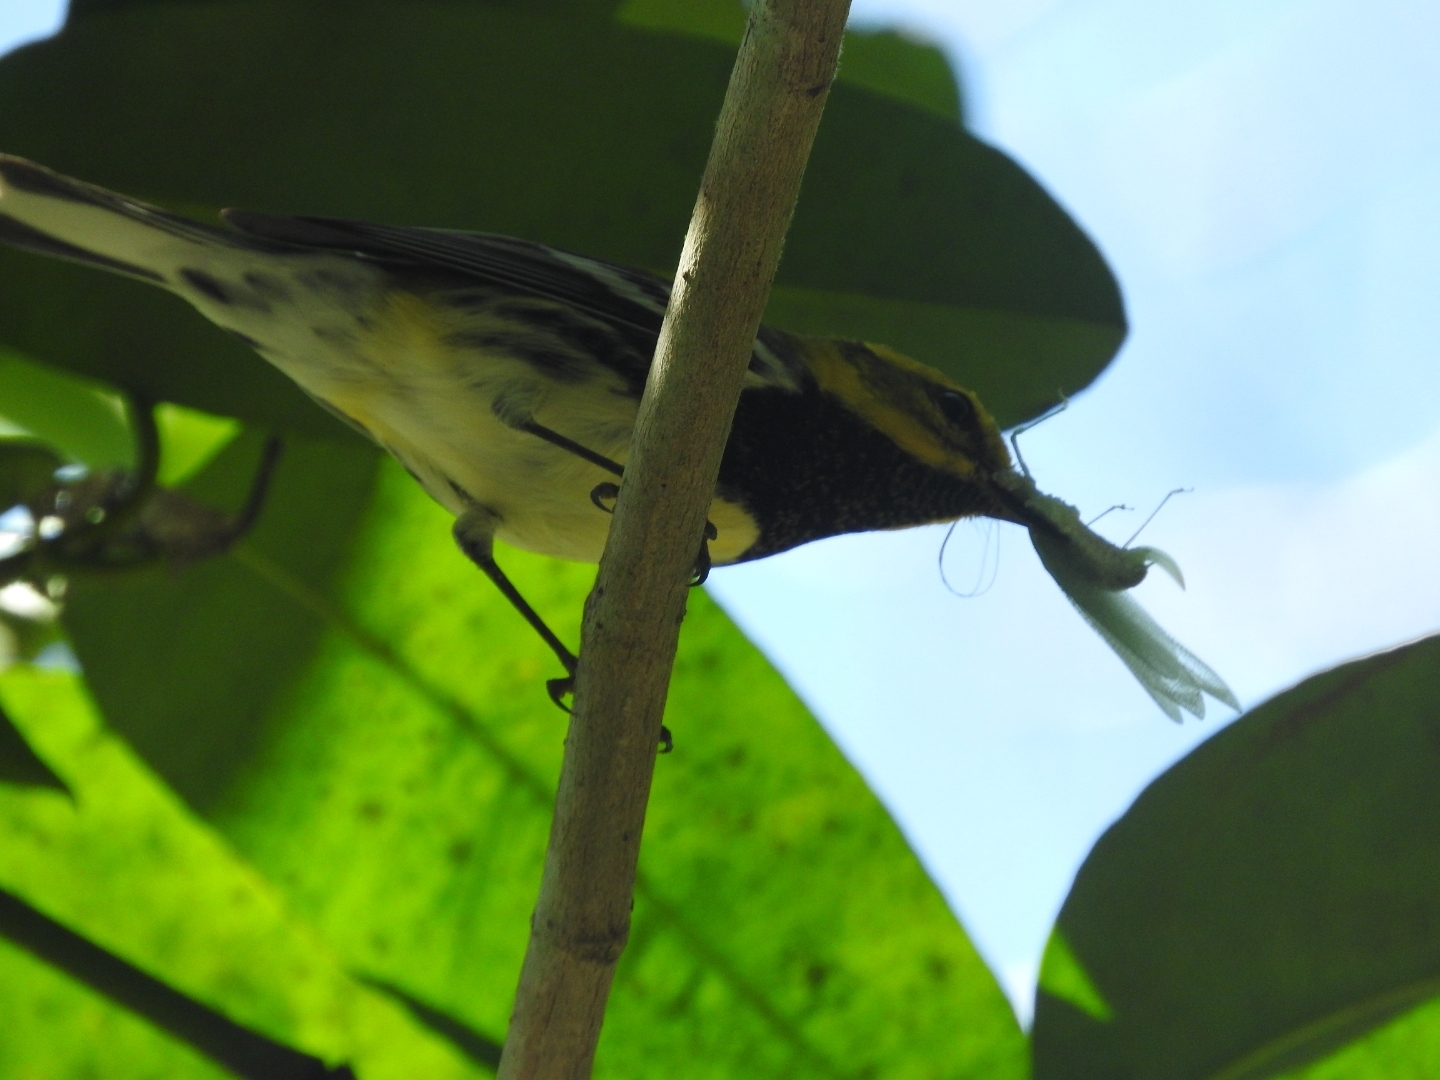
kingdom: Animalia
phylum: Chordata
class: Aves
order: Passeriformes
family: Parulidae
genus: Setophaga
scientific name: Setophaga virens
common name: Black-throated green warbler
